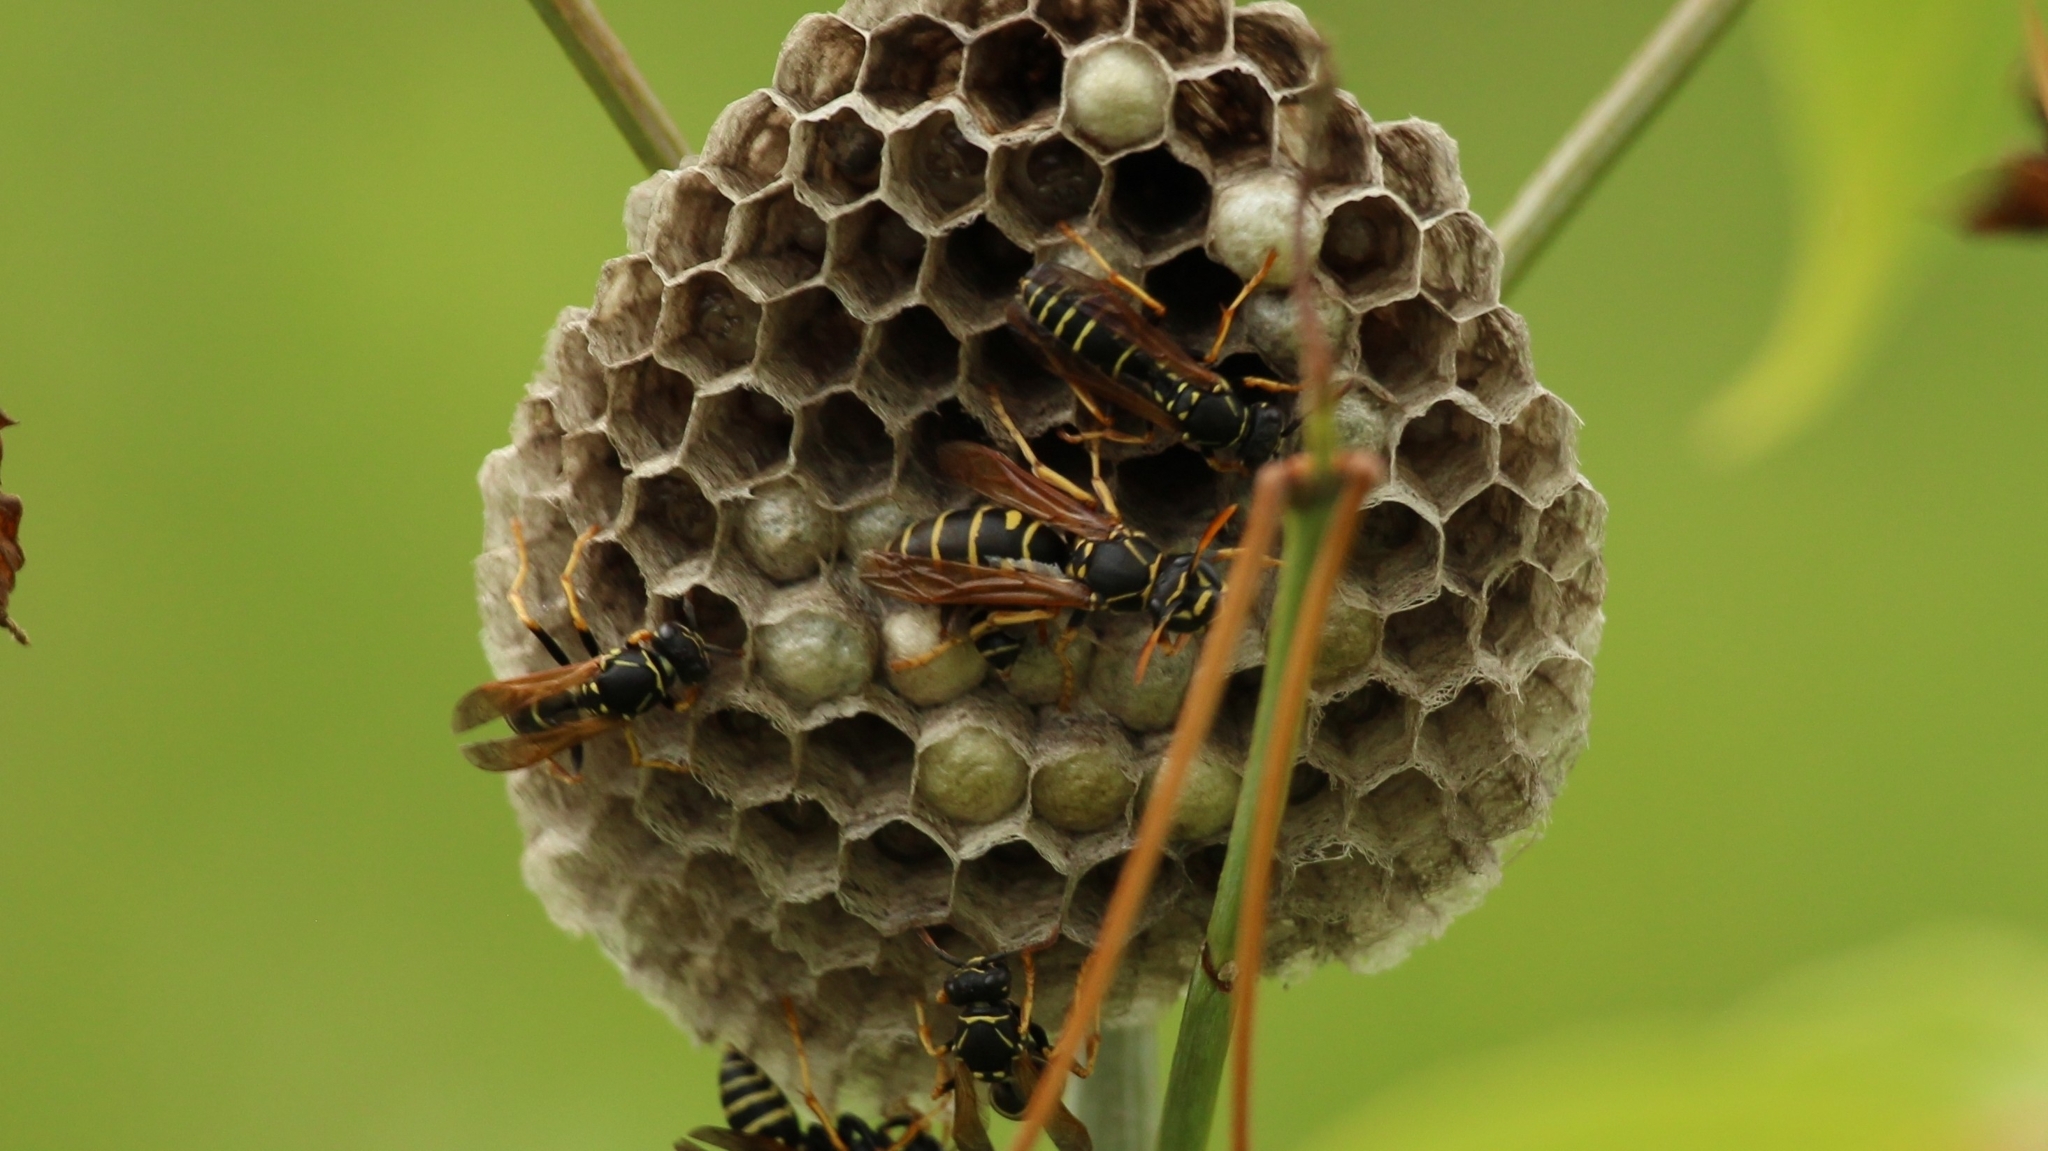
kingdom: Animalia
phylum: Arthropoda
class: Insecta
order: Hymenoptera
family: Eumenidae
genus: Polistes
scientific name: Polistes nimpha
